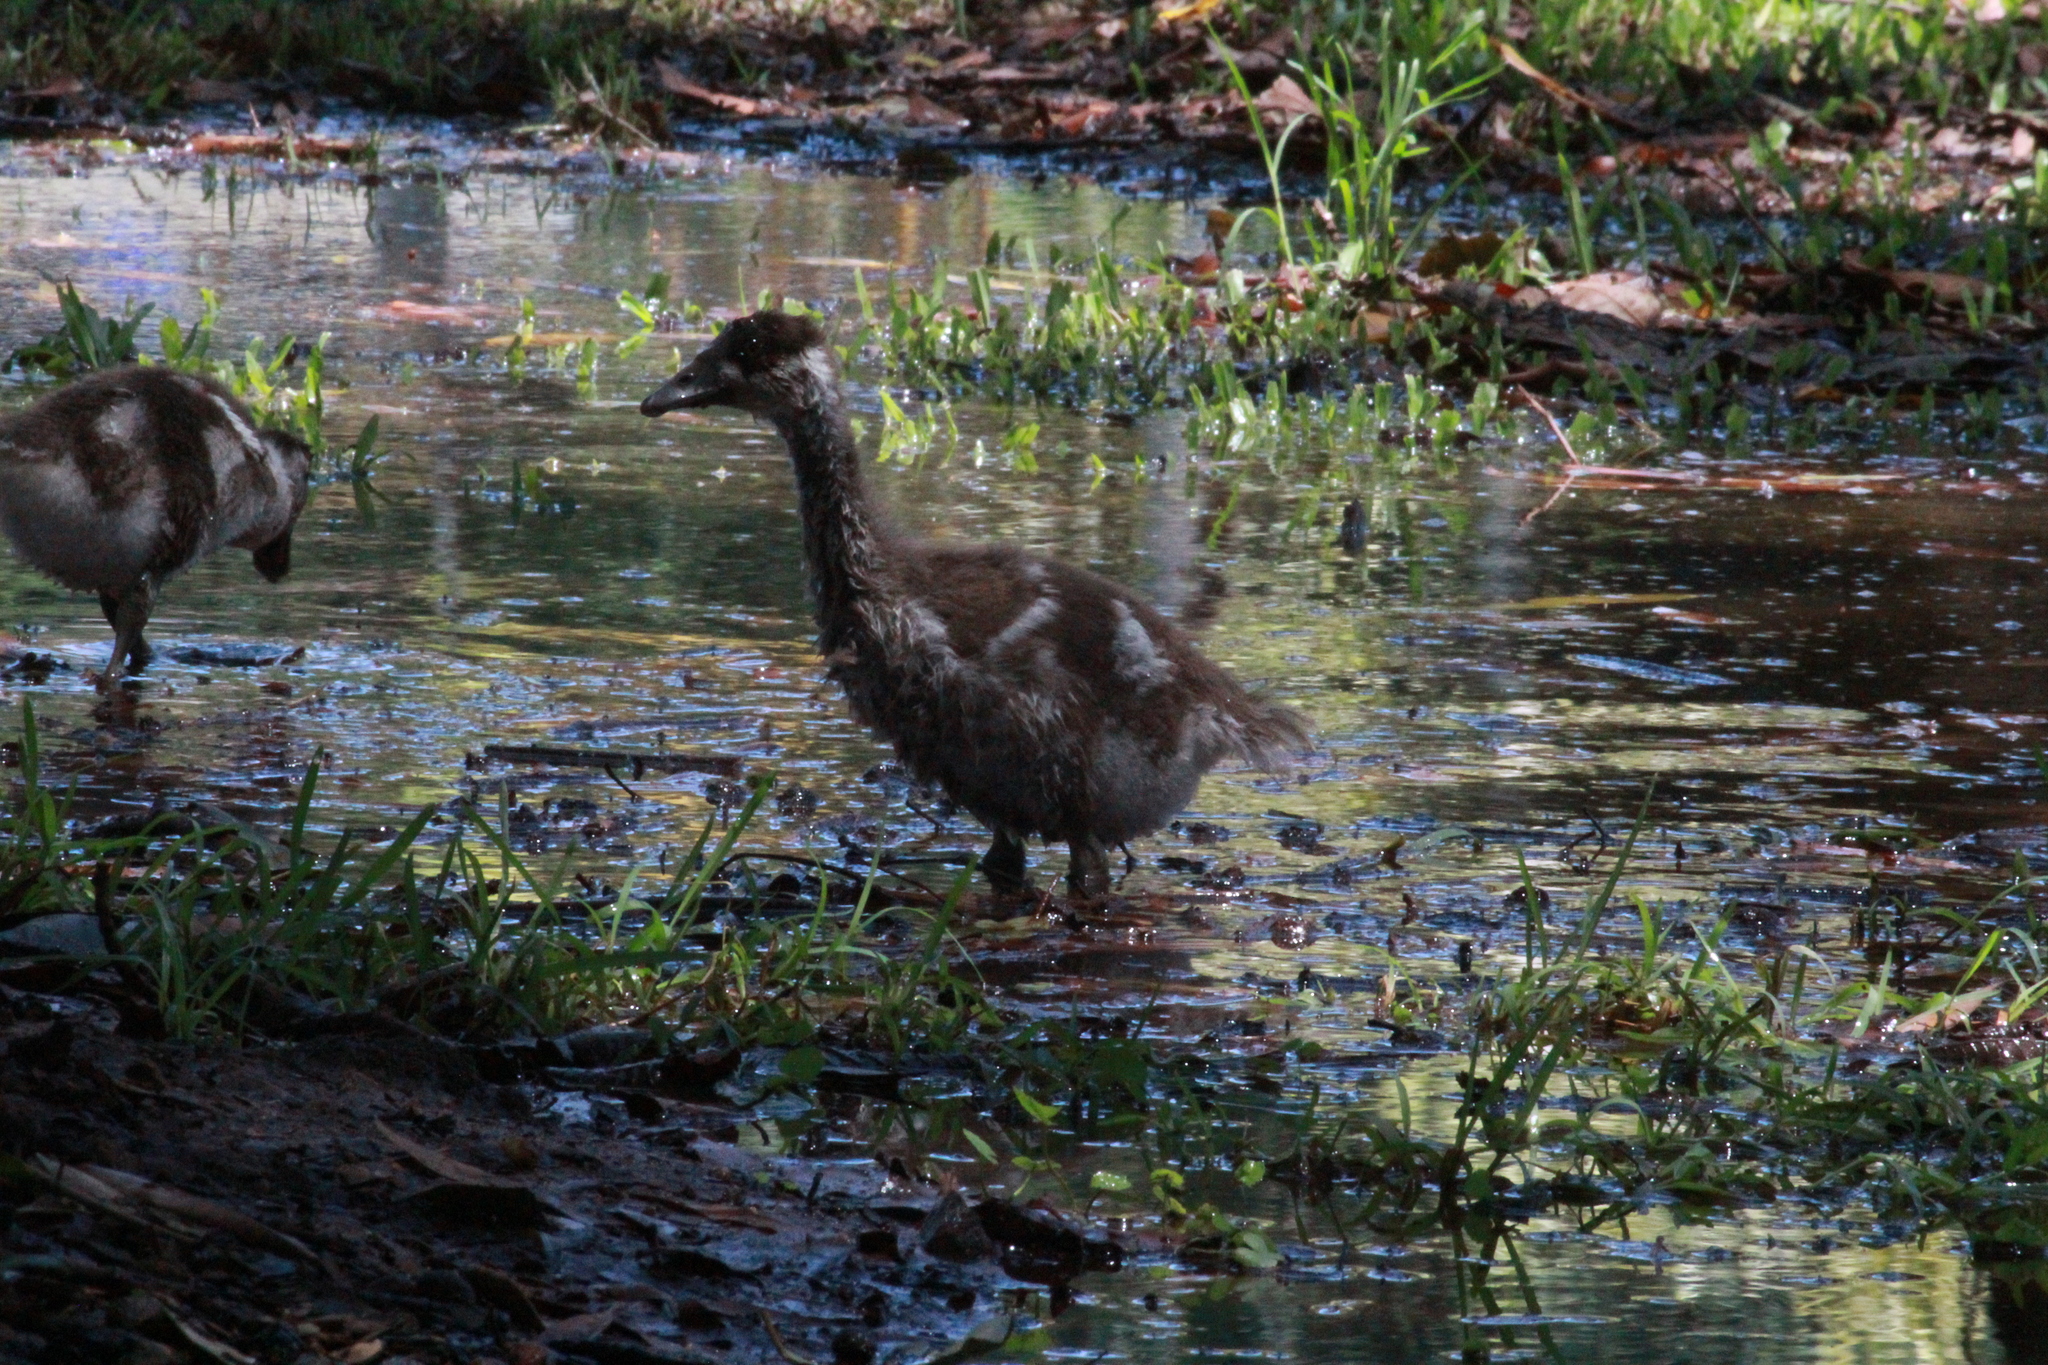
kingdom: Animalia
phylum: Chordata
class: Aves
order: Anseriformes
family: Anatidae
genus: Alopochen
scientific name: Alopochen aegyptiaca
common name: Egyptian goose
